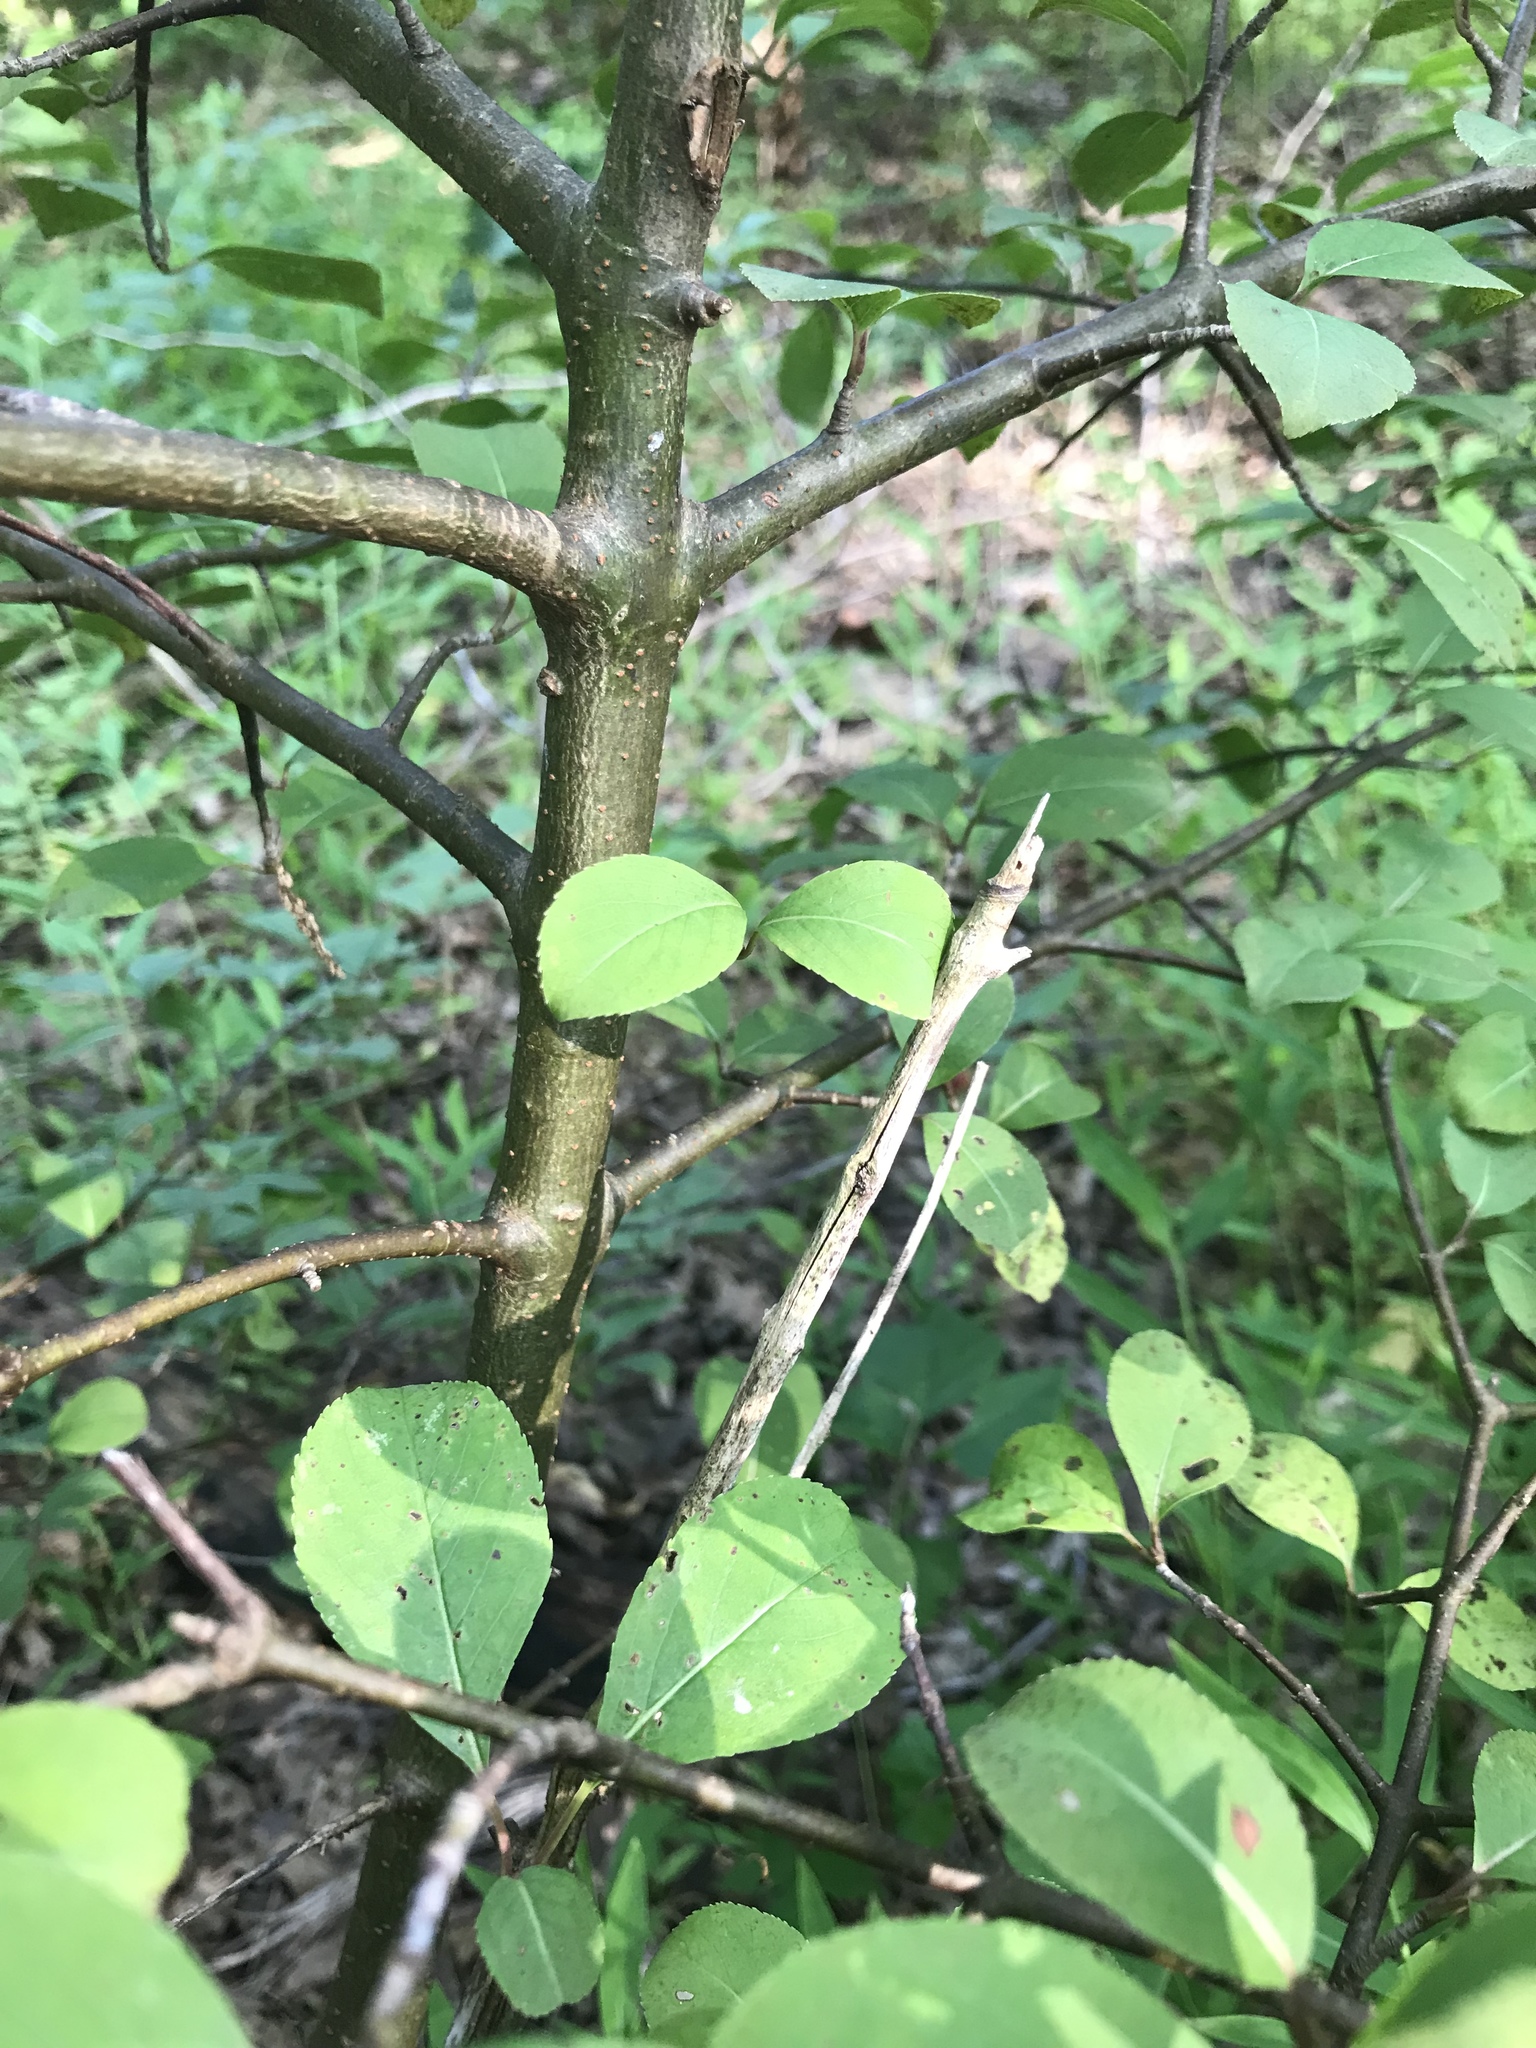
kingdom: Plantae
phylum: Tracheophyta
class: Magnoliopsida
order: Dipsacales
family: Viburnaceae
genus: Viburnum
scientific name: Viburnum prunifolium
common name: Black haw
